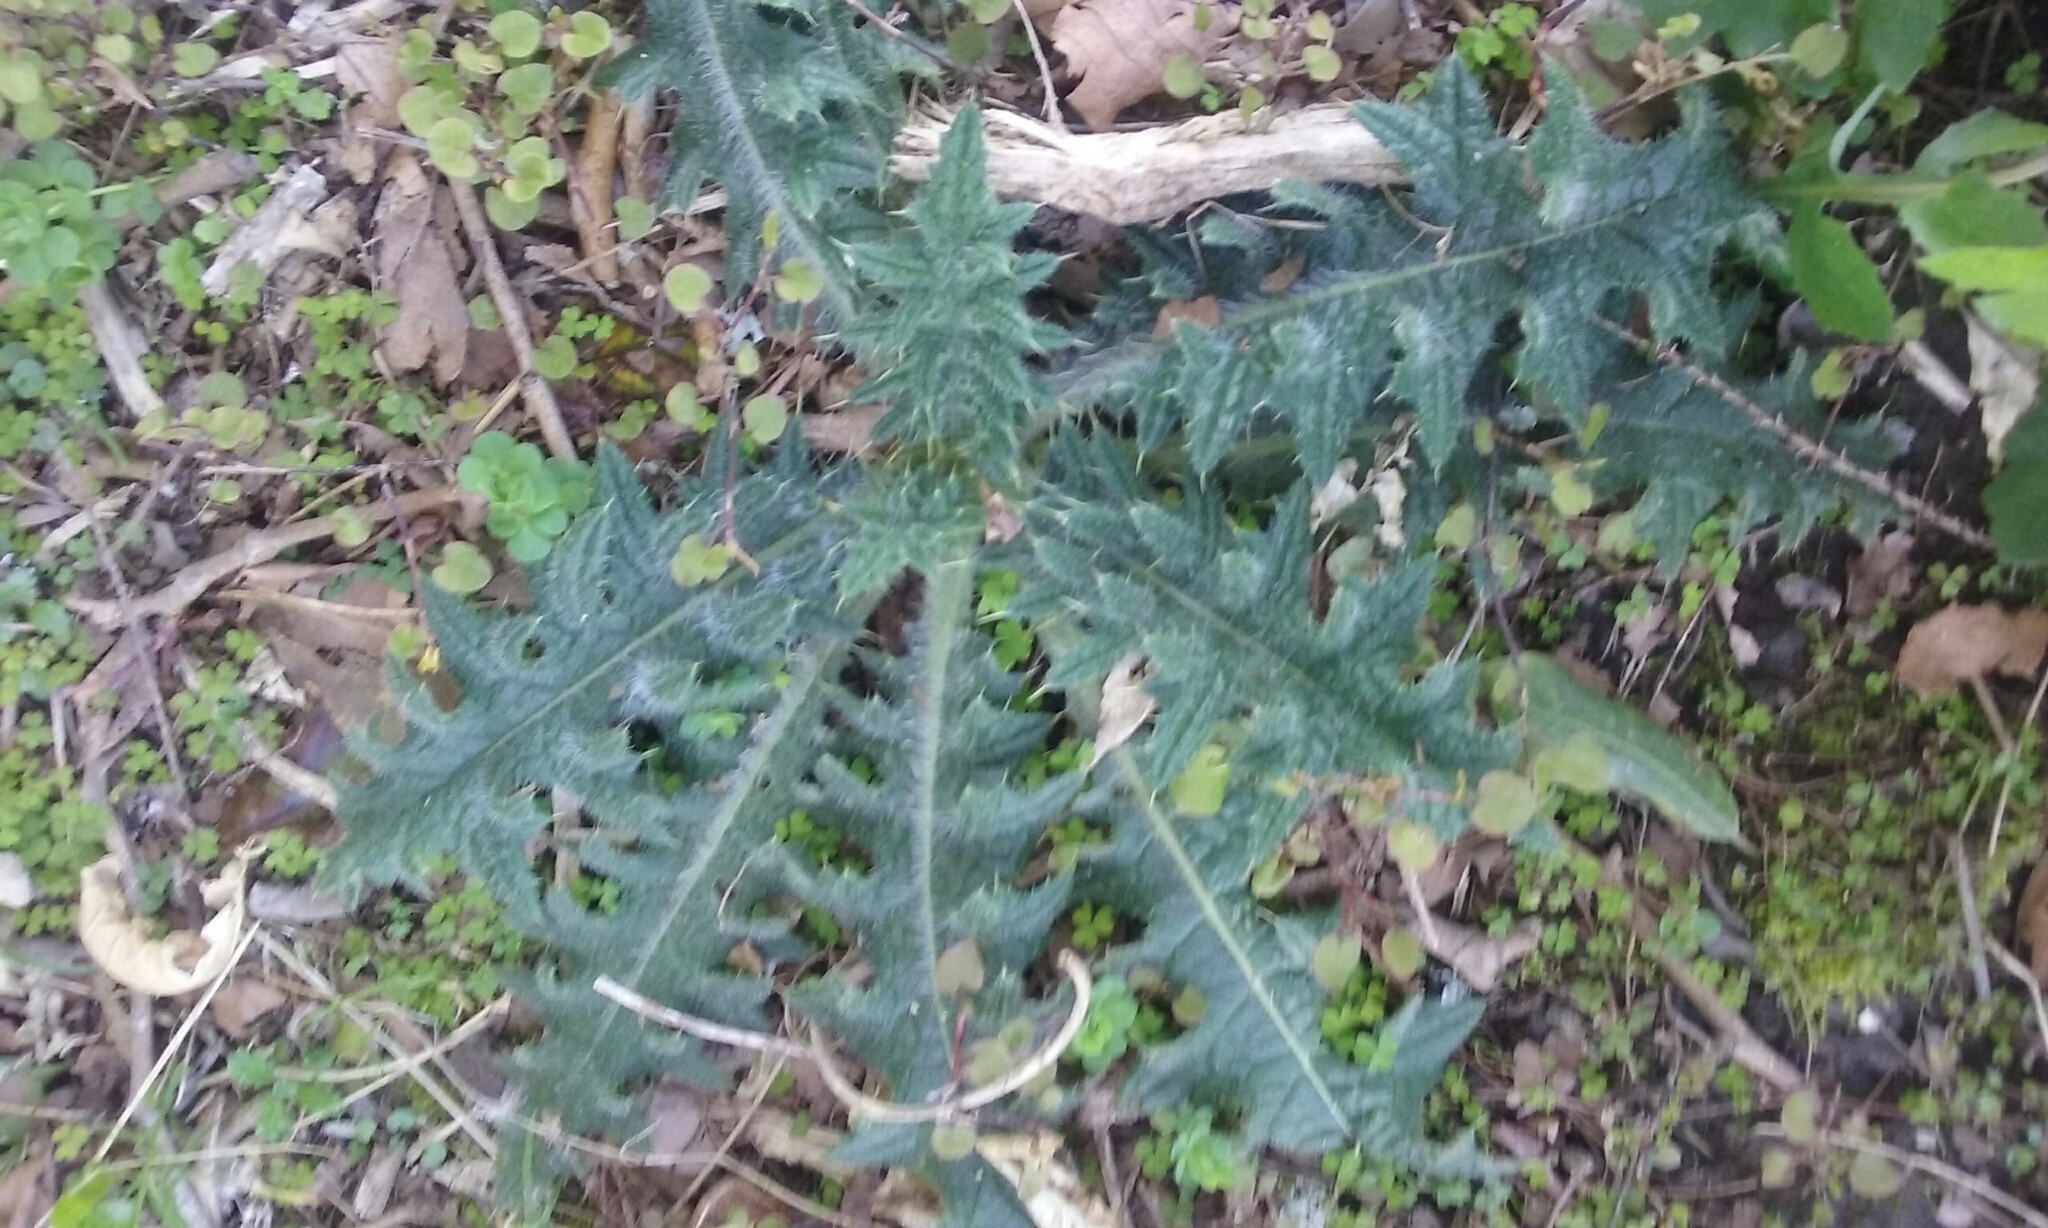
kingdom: Plantae
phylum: Tracheophyta
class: Magnoliopsida
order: Asterales
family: Asteraceae
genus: Cirsium
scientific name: Cirsium vulgare
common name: Bull thistle
